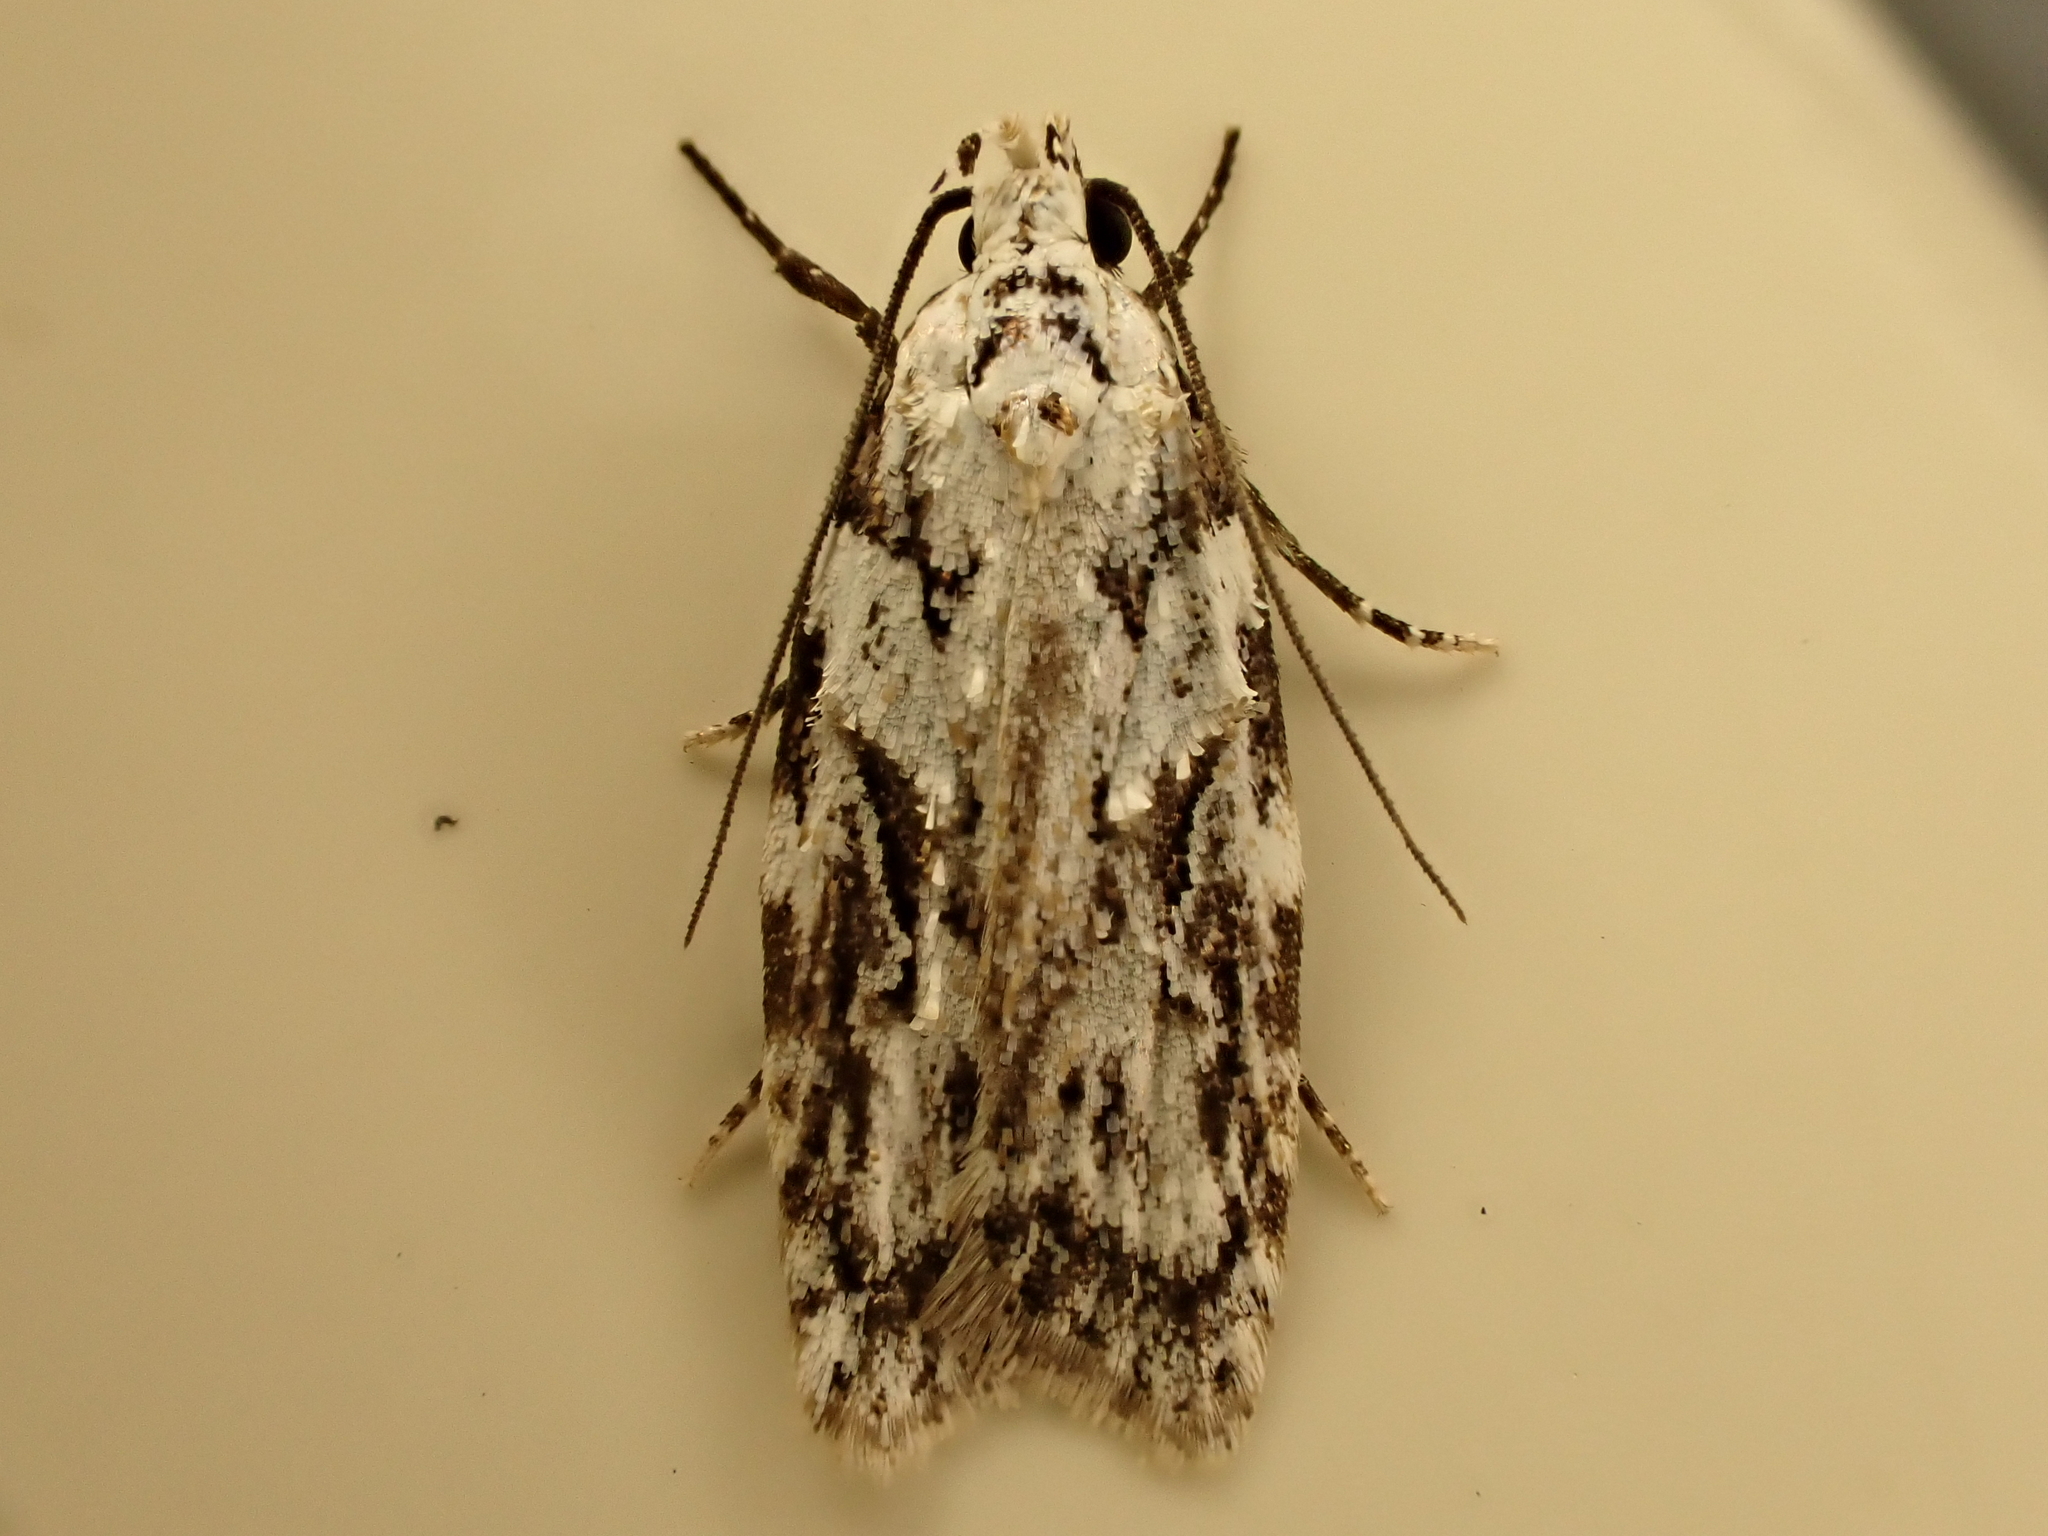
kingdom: Animalia
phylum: Arthropoda
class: Insecta
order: Lepidoptera
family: Oecophoridae
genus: Izatha
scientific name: Izatha mesoschista
